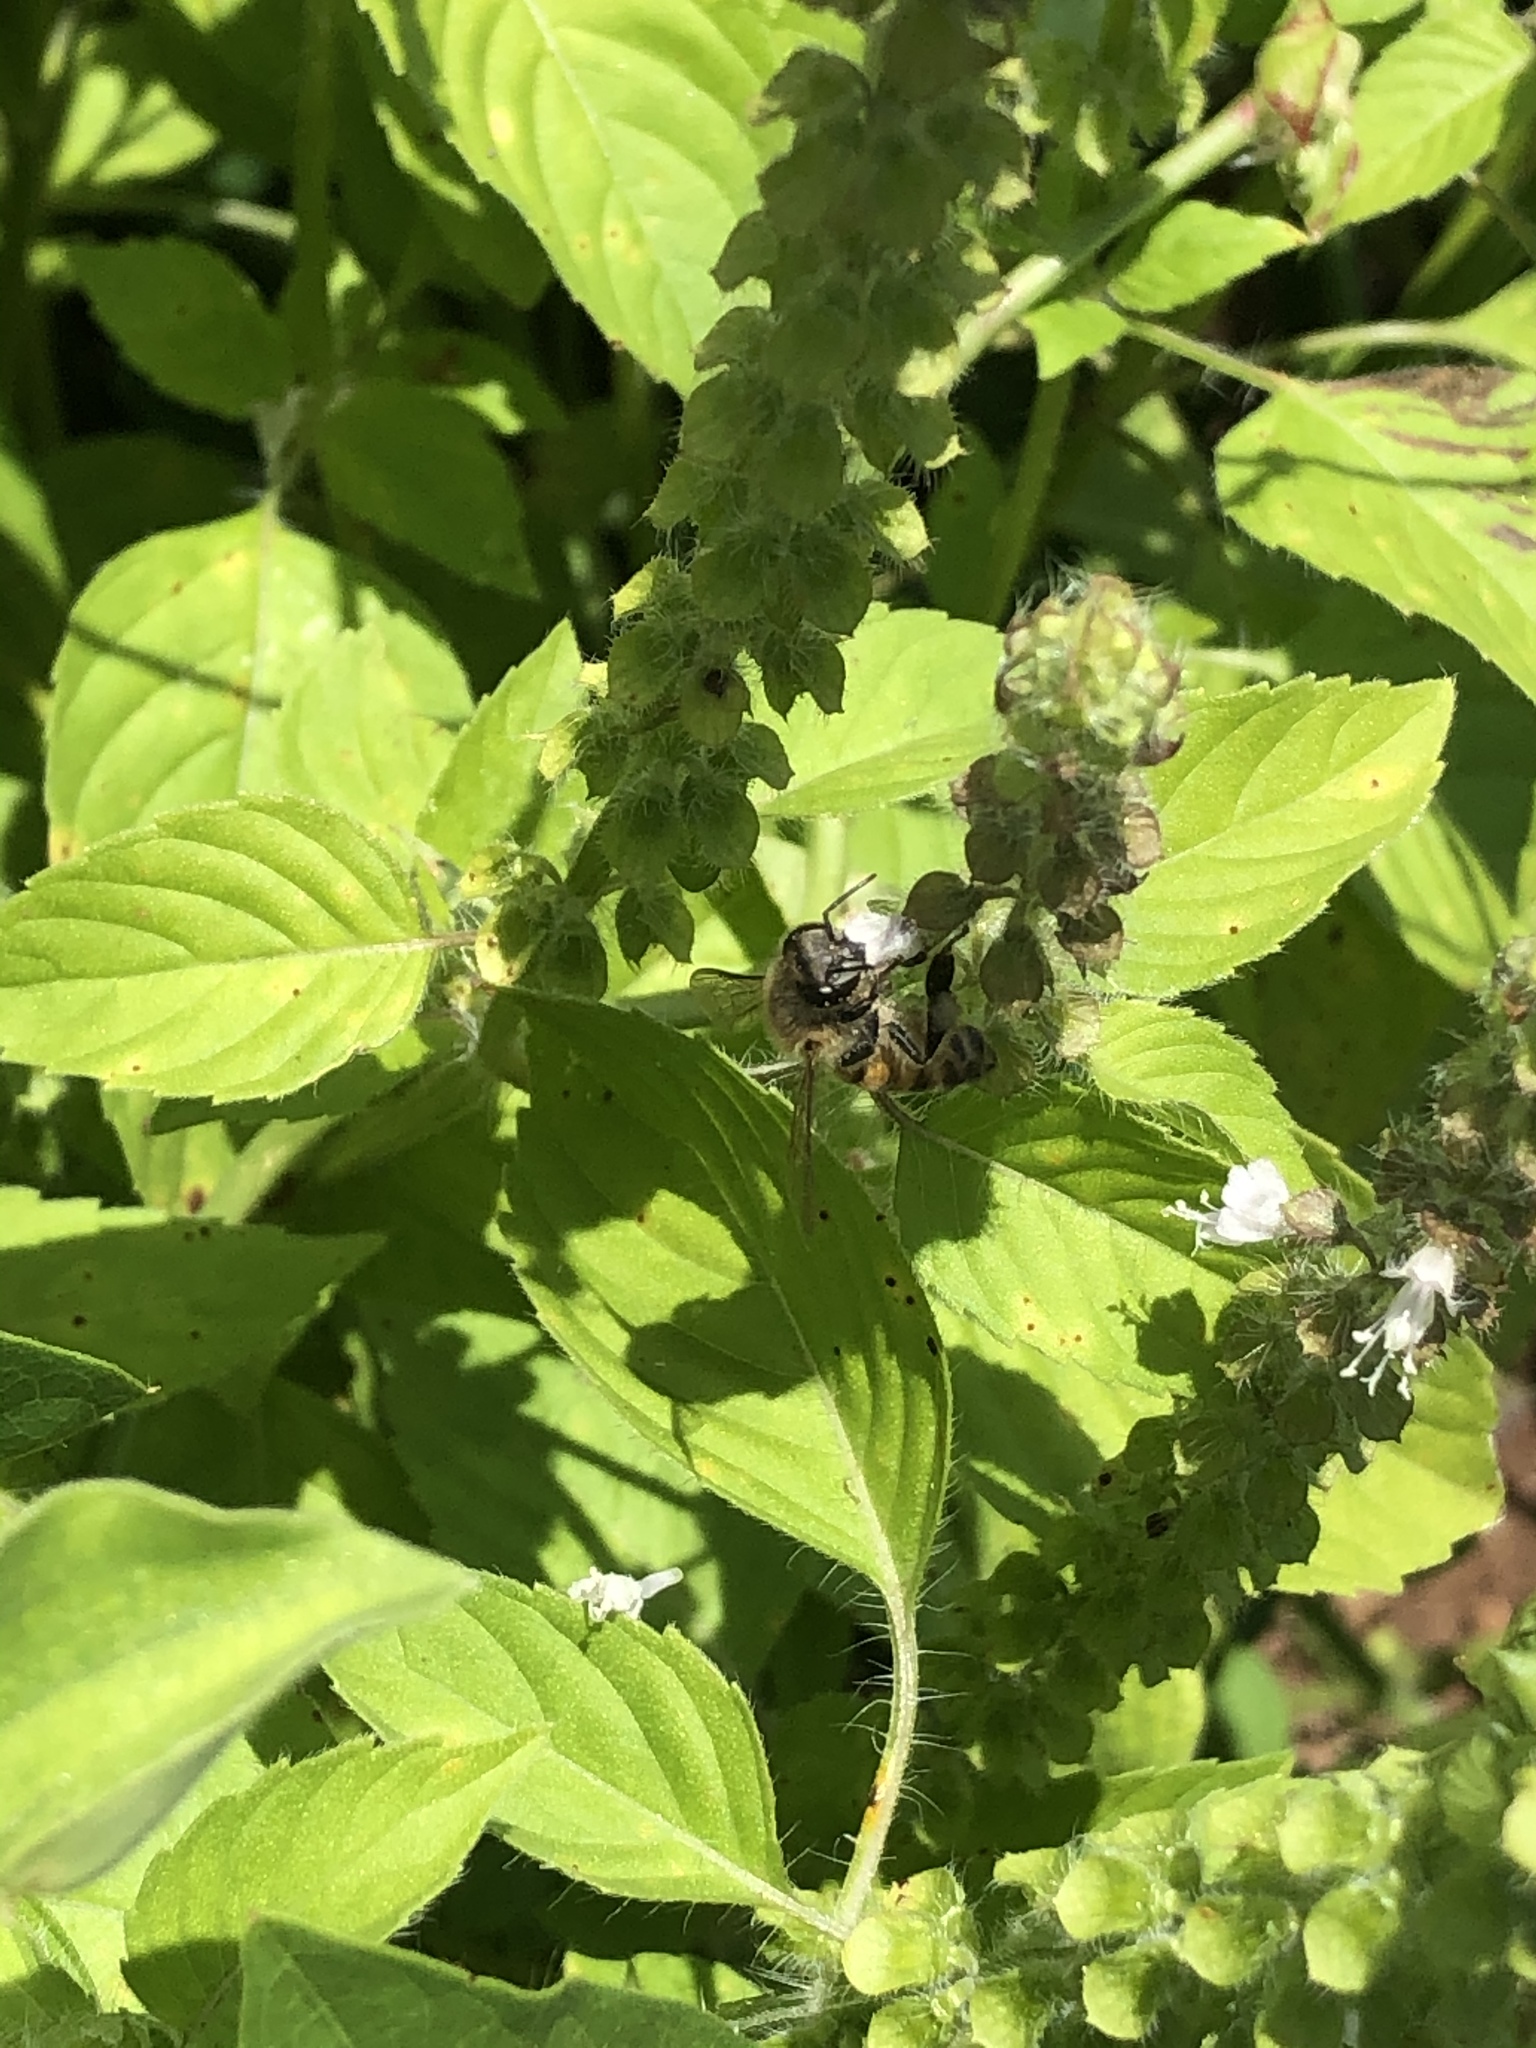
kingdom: Animalia
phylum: Arthropoda
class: Insecta
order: Hymenoptera
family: Apidae
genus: Apis
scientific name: Apis mellifera
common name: Honey bee
